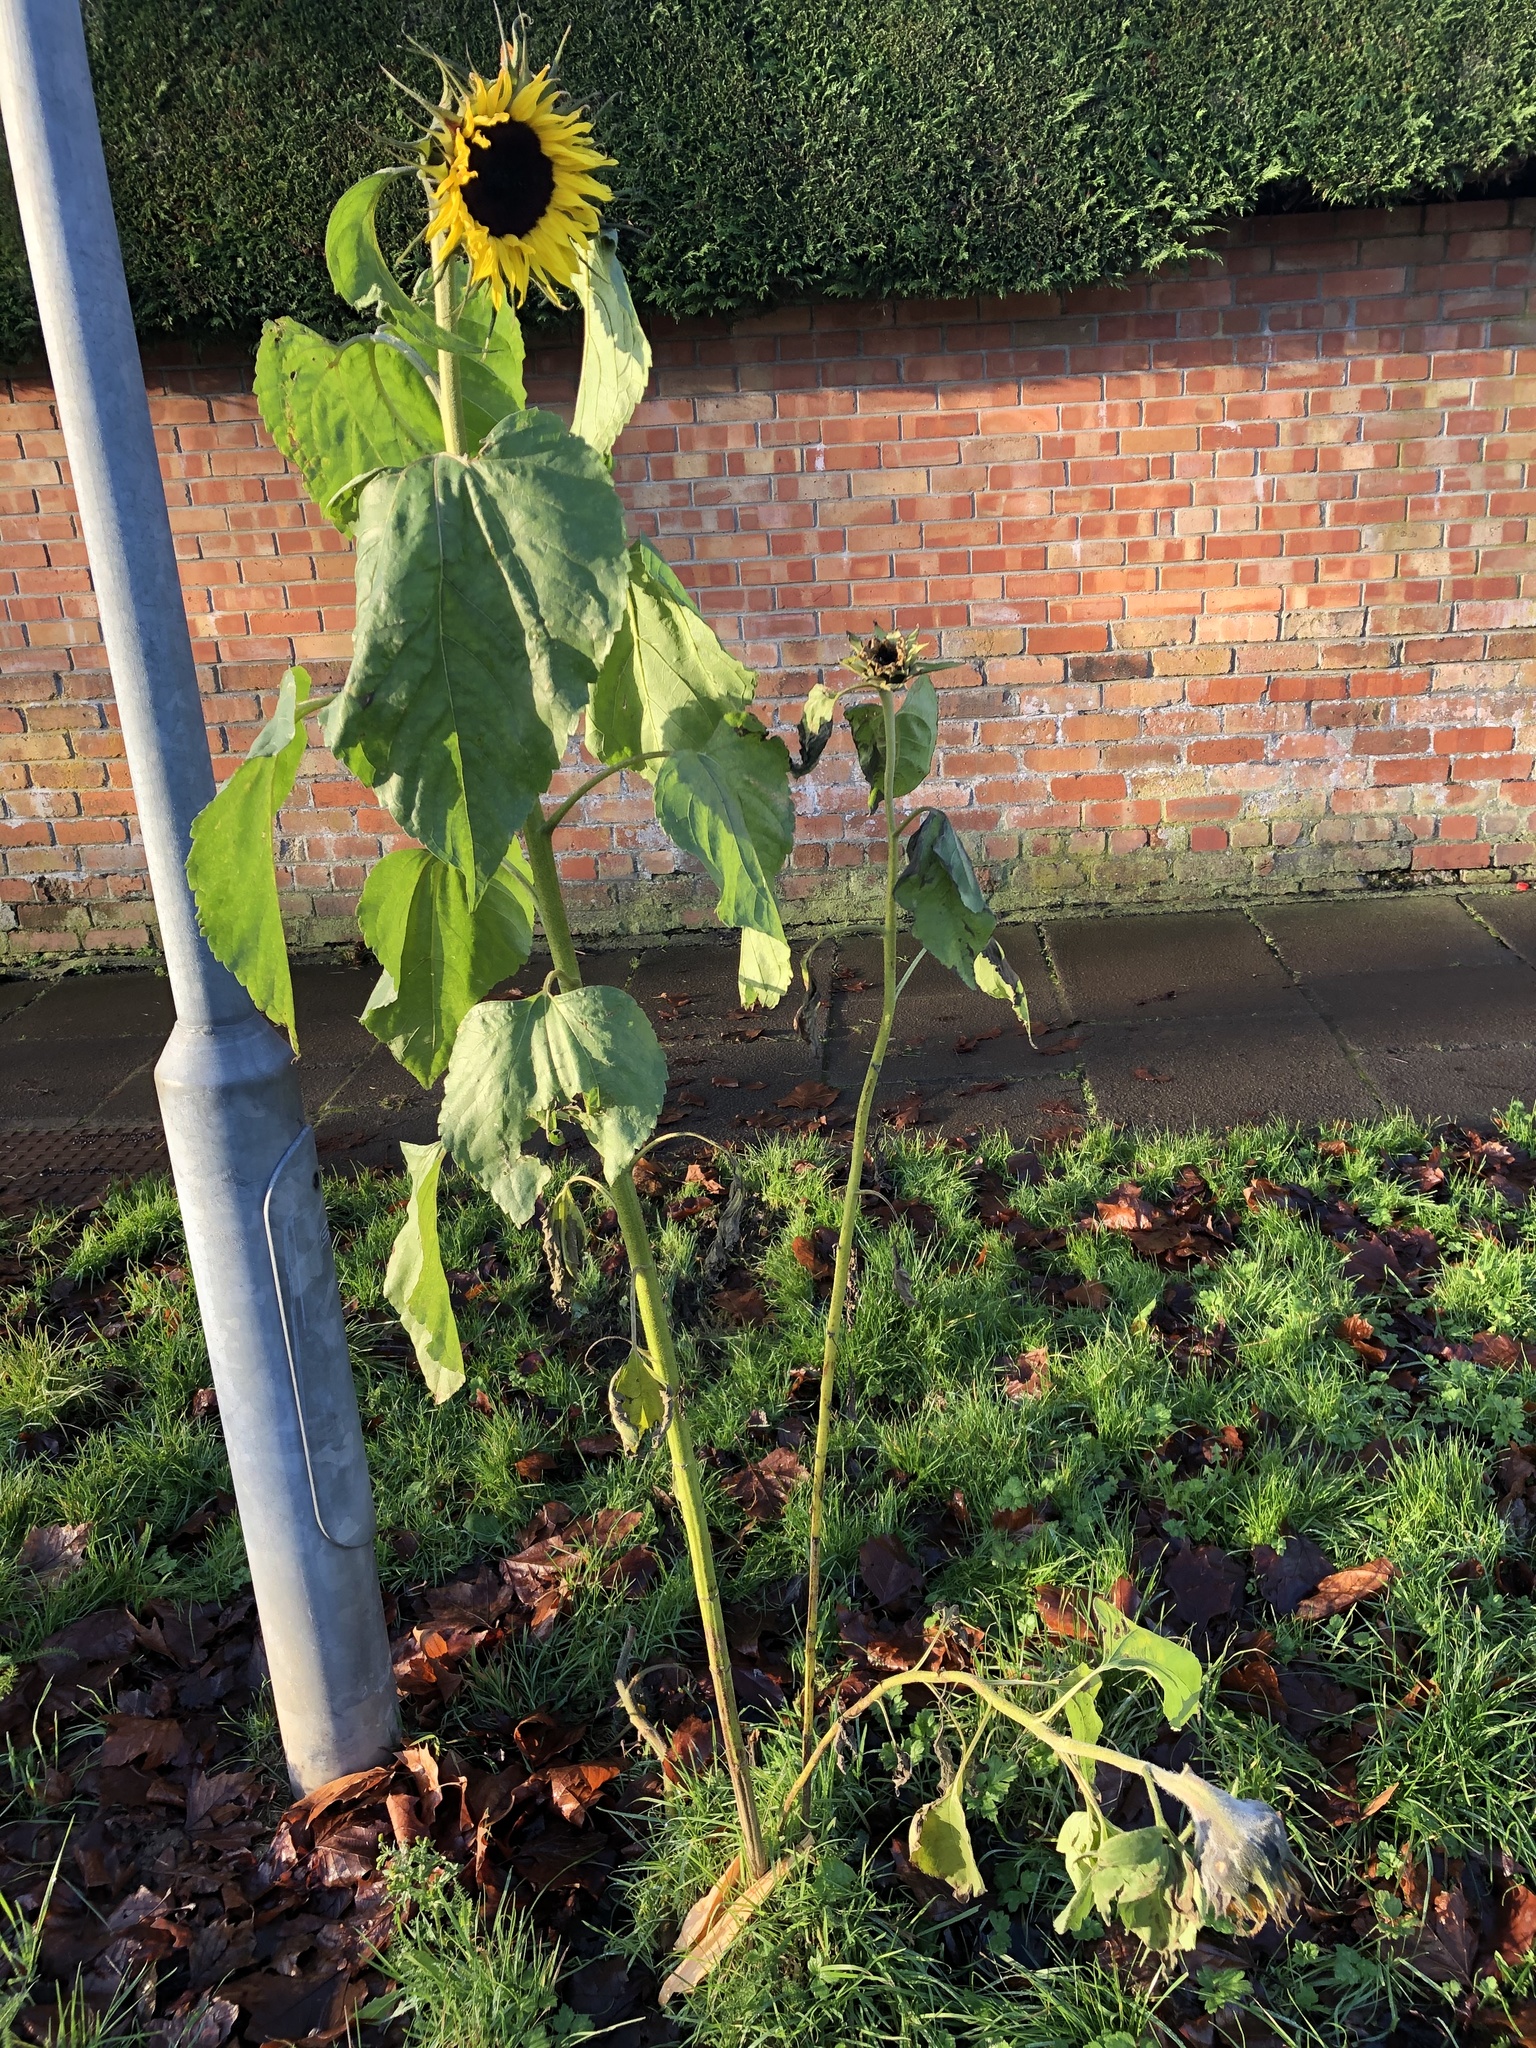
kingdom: Plantae
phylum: Tracheophyta
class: Magnoliopsida
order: Asterales
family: Asteraceae
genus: Helianthus
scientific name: Helianthus annuus
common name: Sunflower
